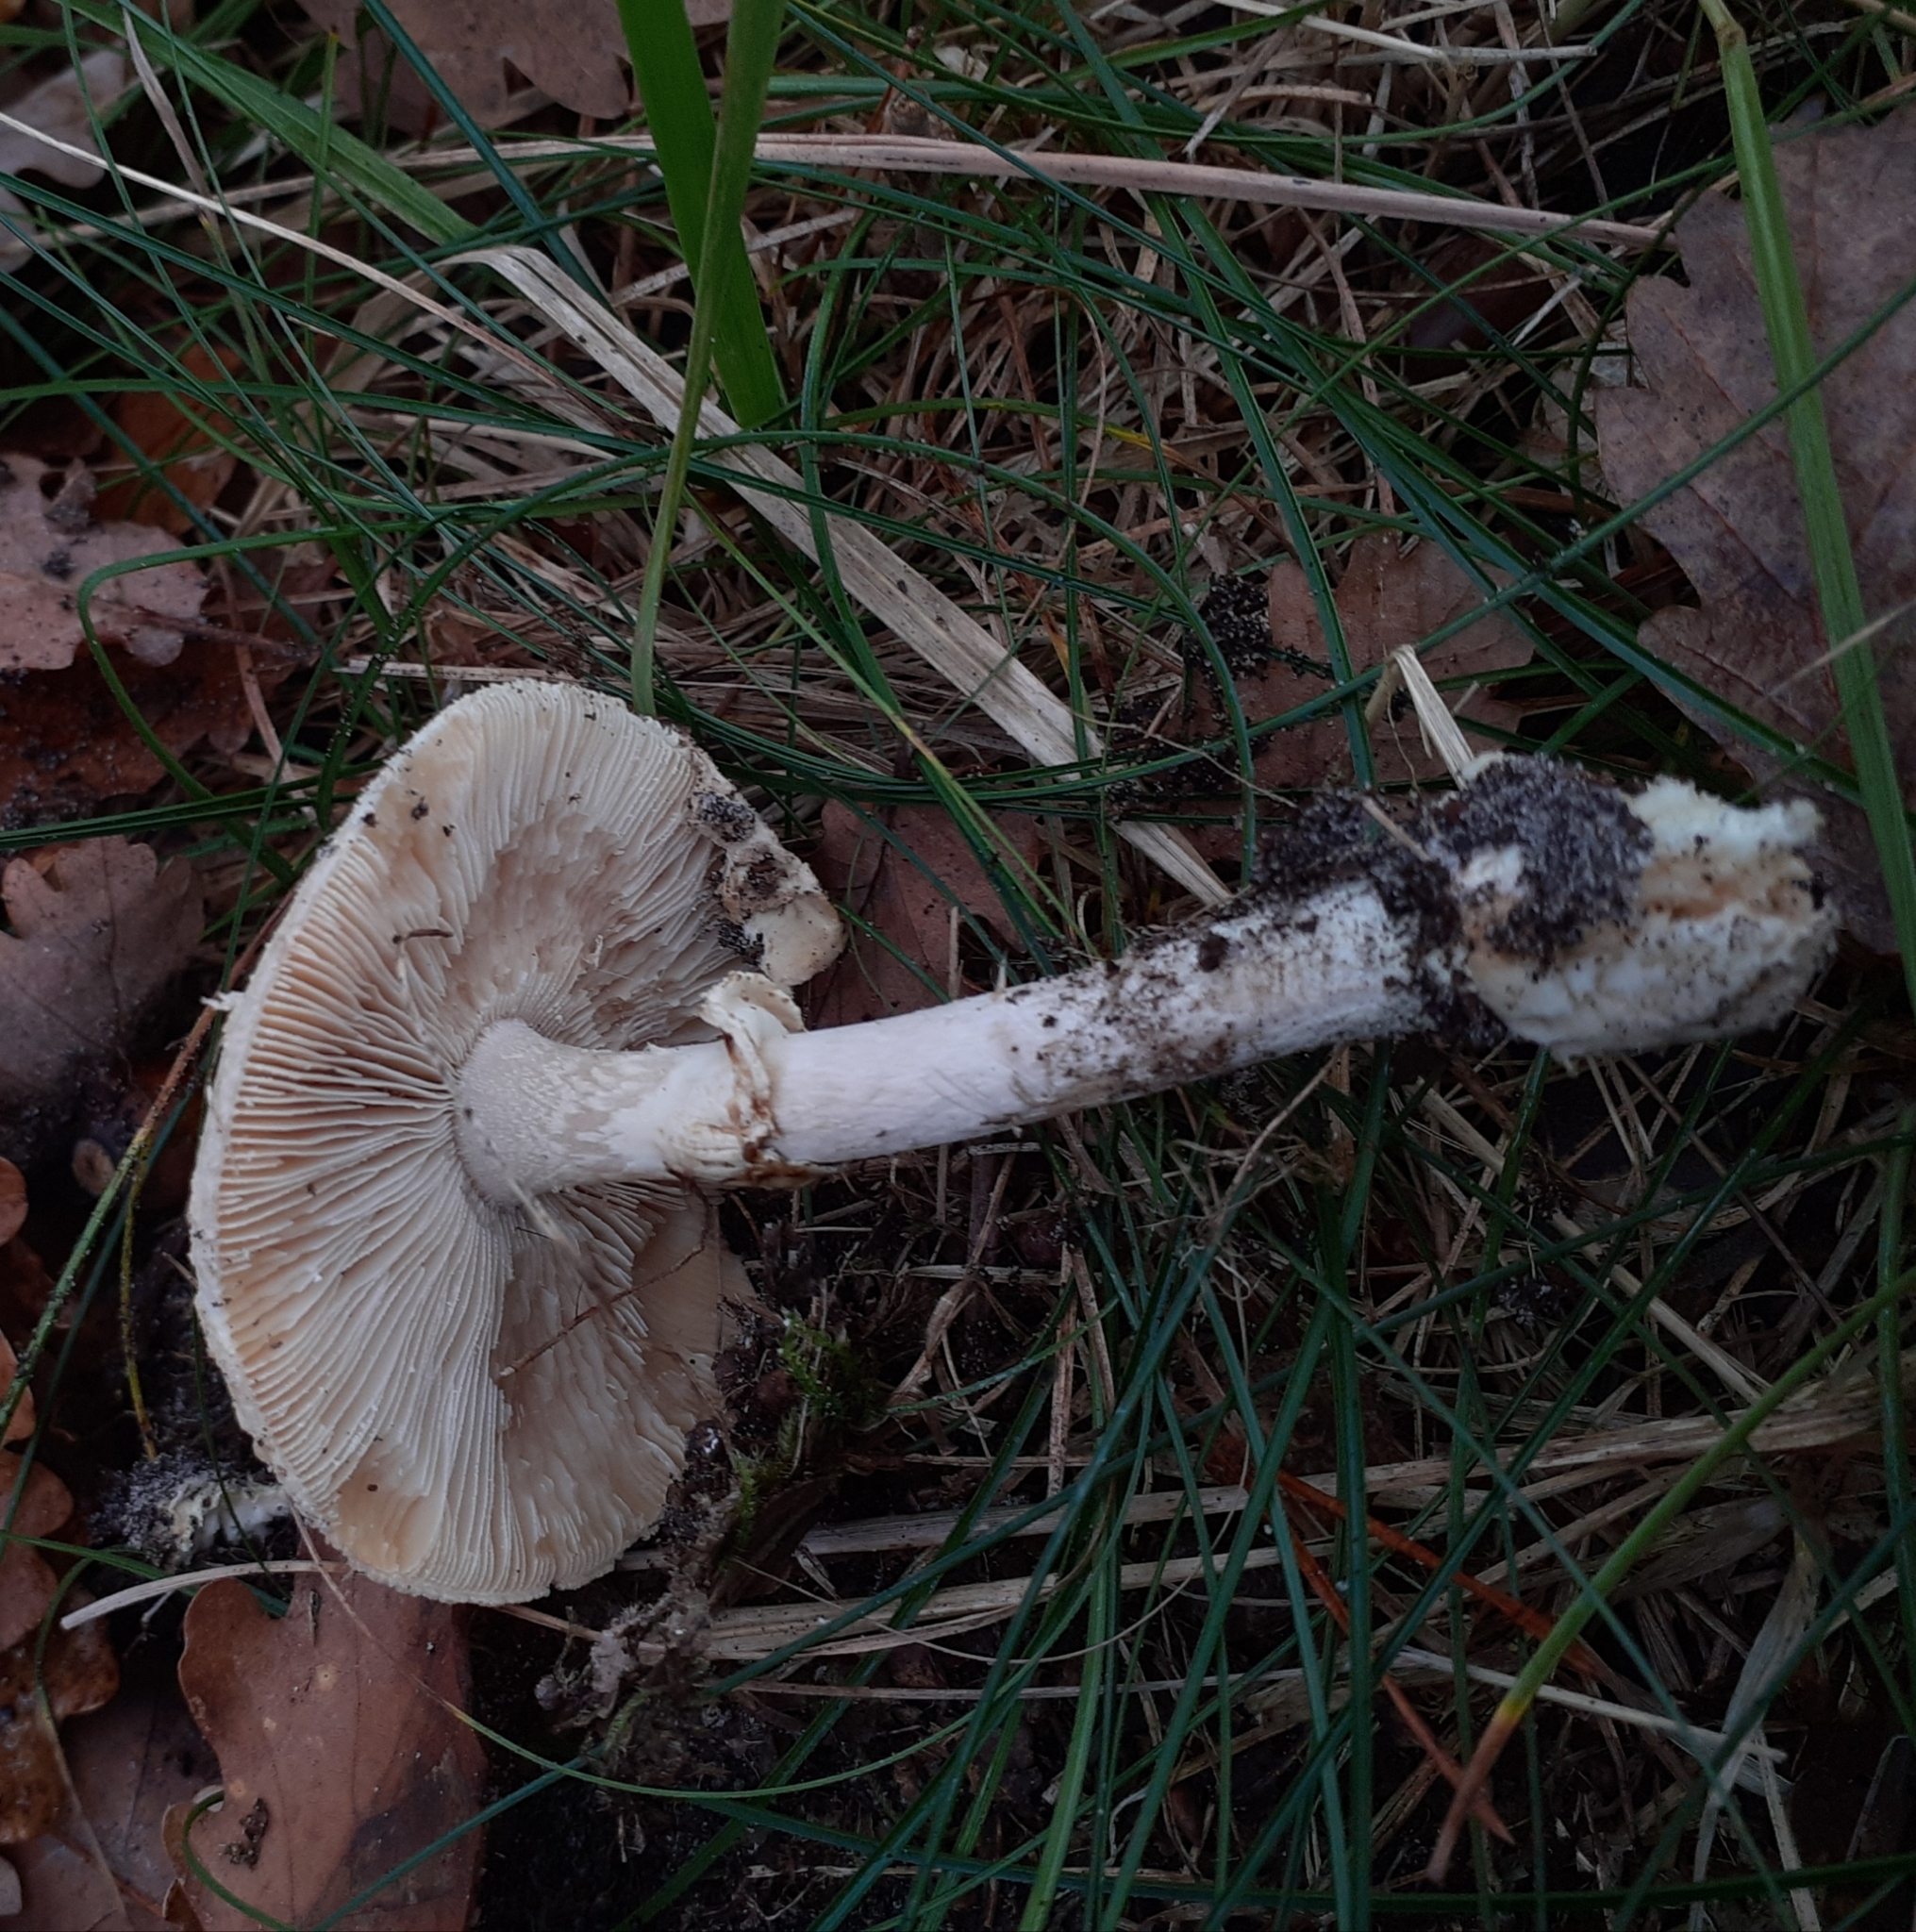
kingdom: Fungi
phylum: Basidiomycota
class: Agaricomycetes
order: Agaricales
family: Amanitaceae
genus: Amanita
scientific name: Amanita citrina
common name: False death-cap
